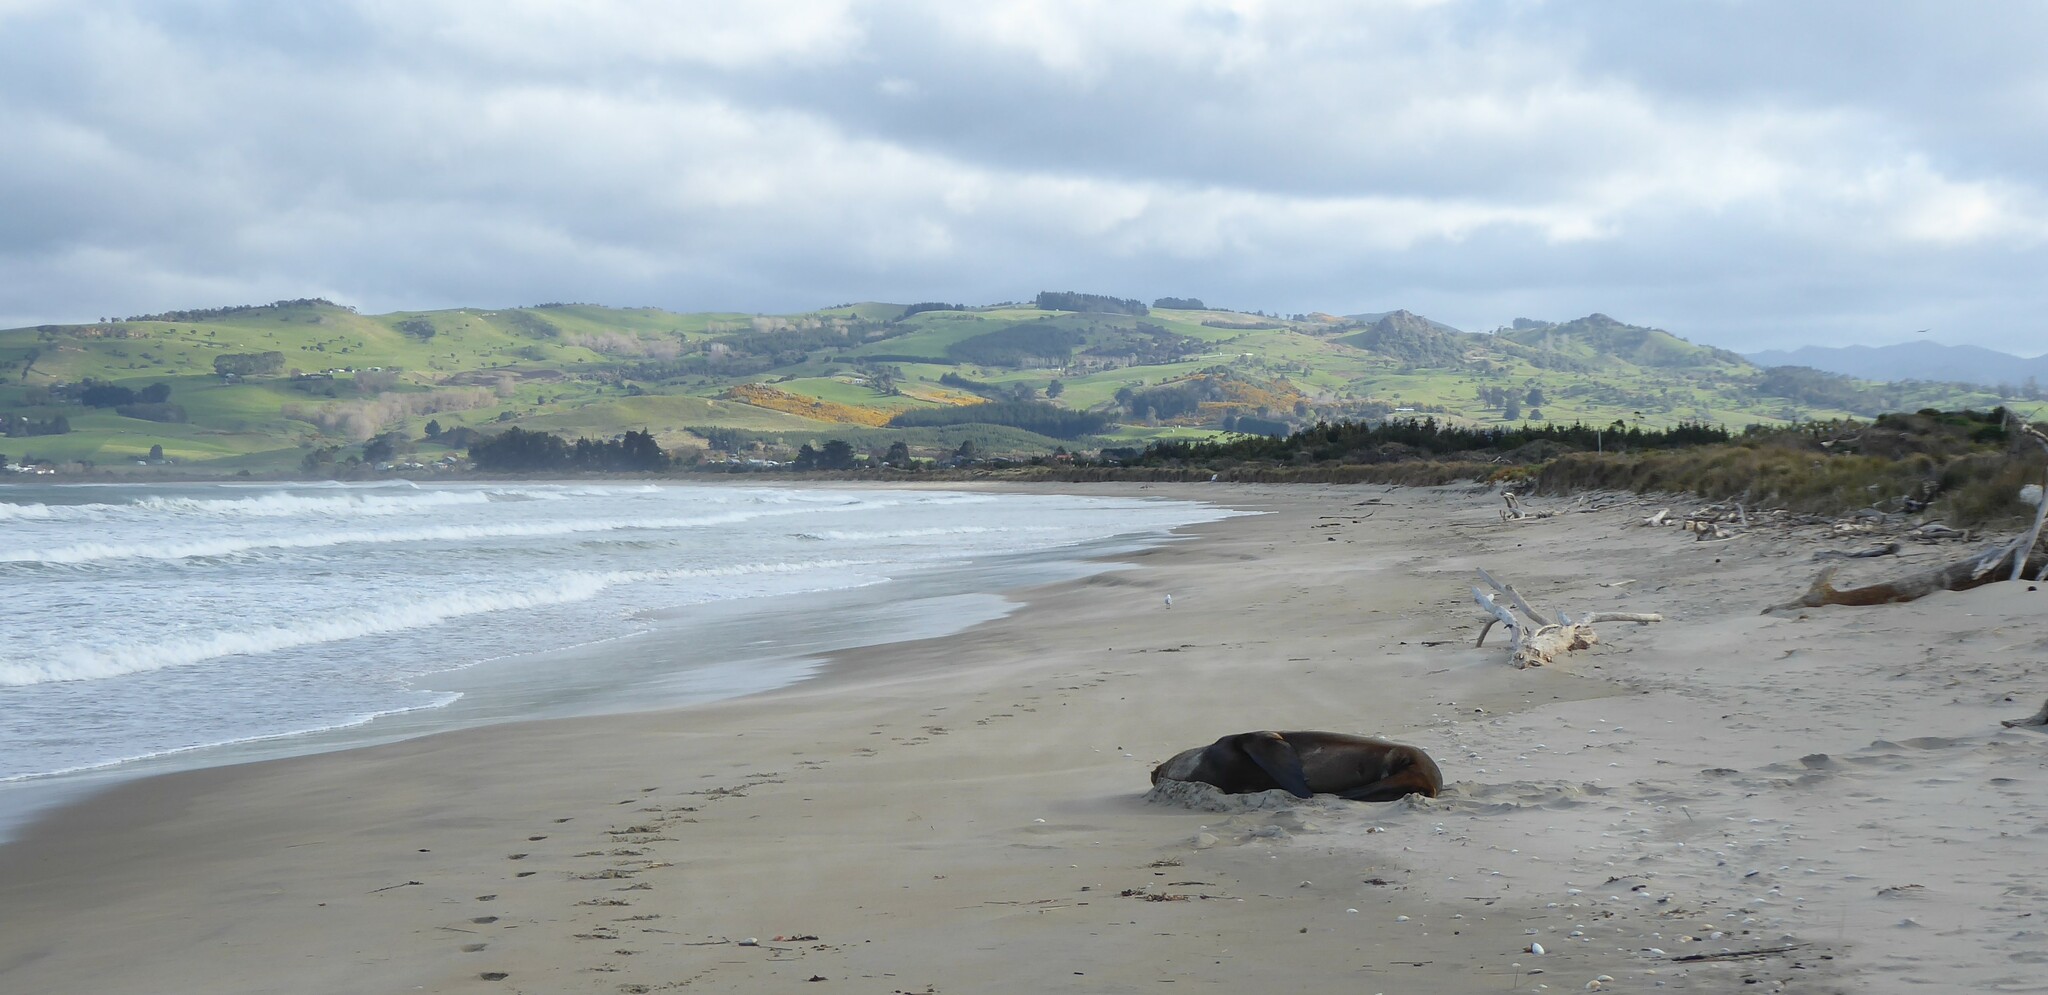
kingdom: Animalia
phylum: Chordata
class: Mammalia
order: Carnivora
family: Otariidae
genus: Phocarctos
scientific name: Phocarctos hookeri
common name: New zealand sea lion
